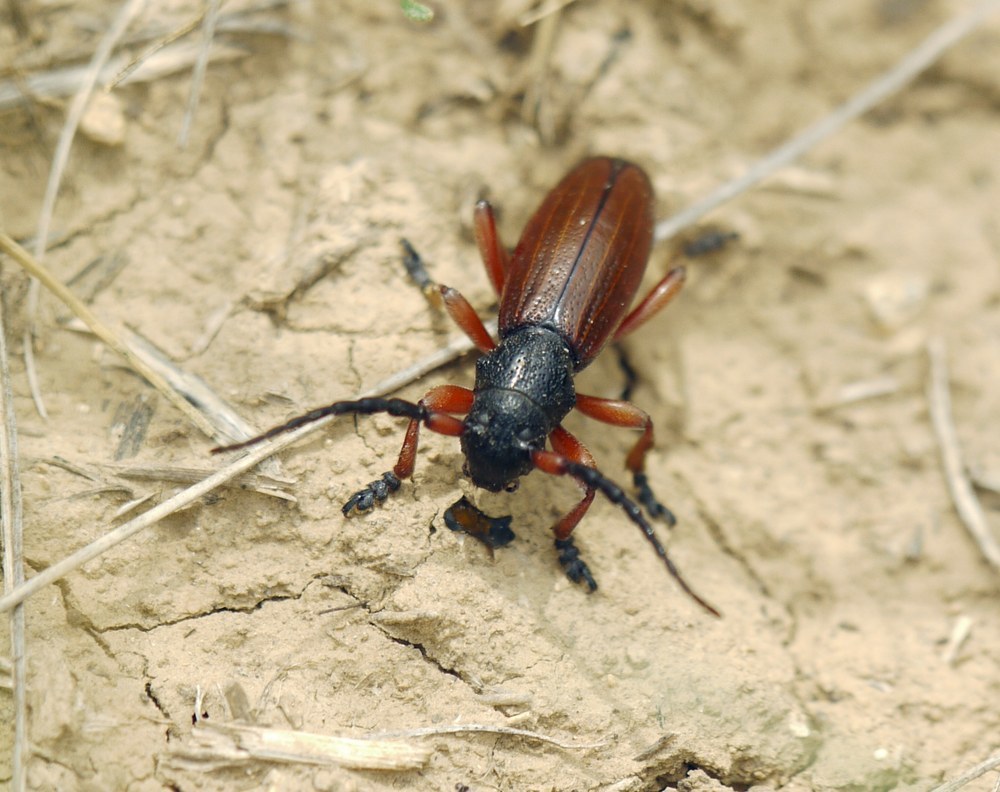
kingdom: Animalia
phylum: Arthropoda
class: Insecta
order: Coleoptera
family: Cerambycidae
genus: Dorcadion
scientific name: Dorcadion fulvum
